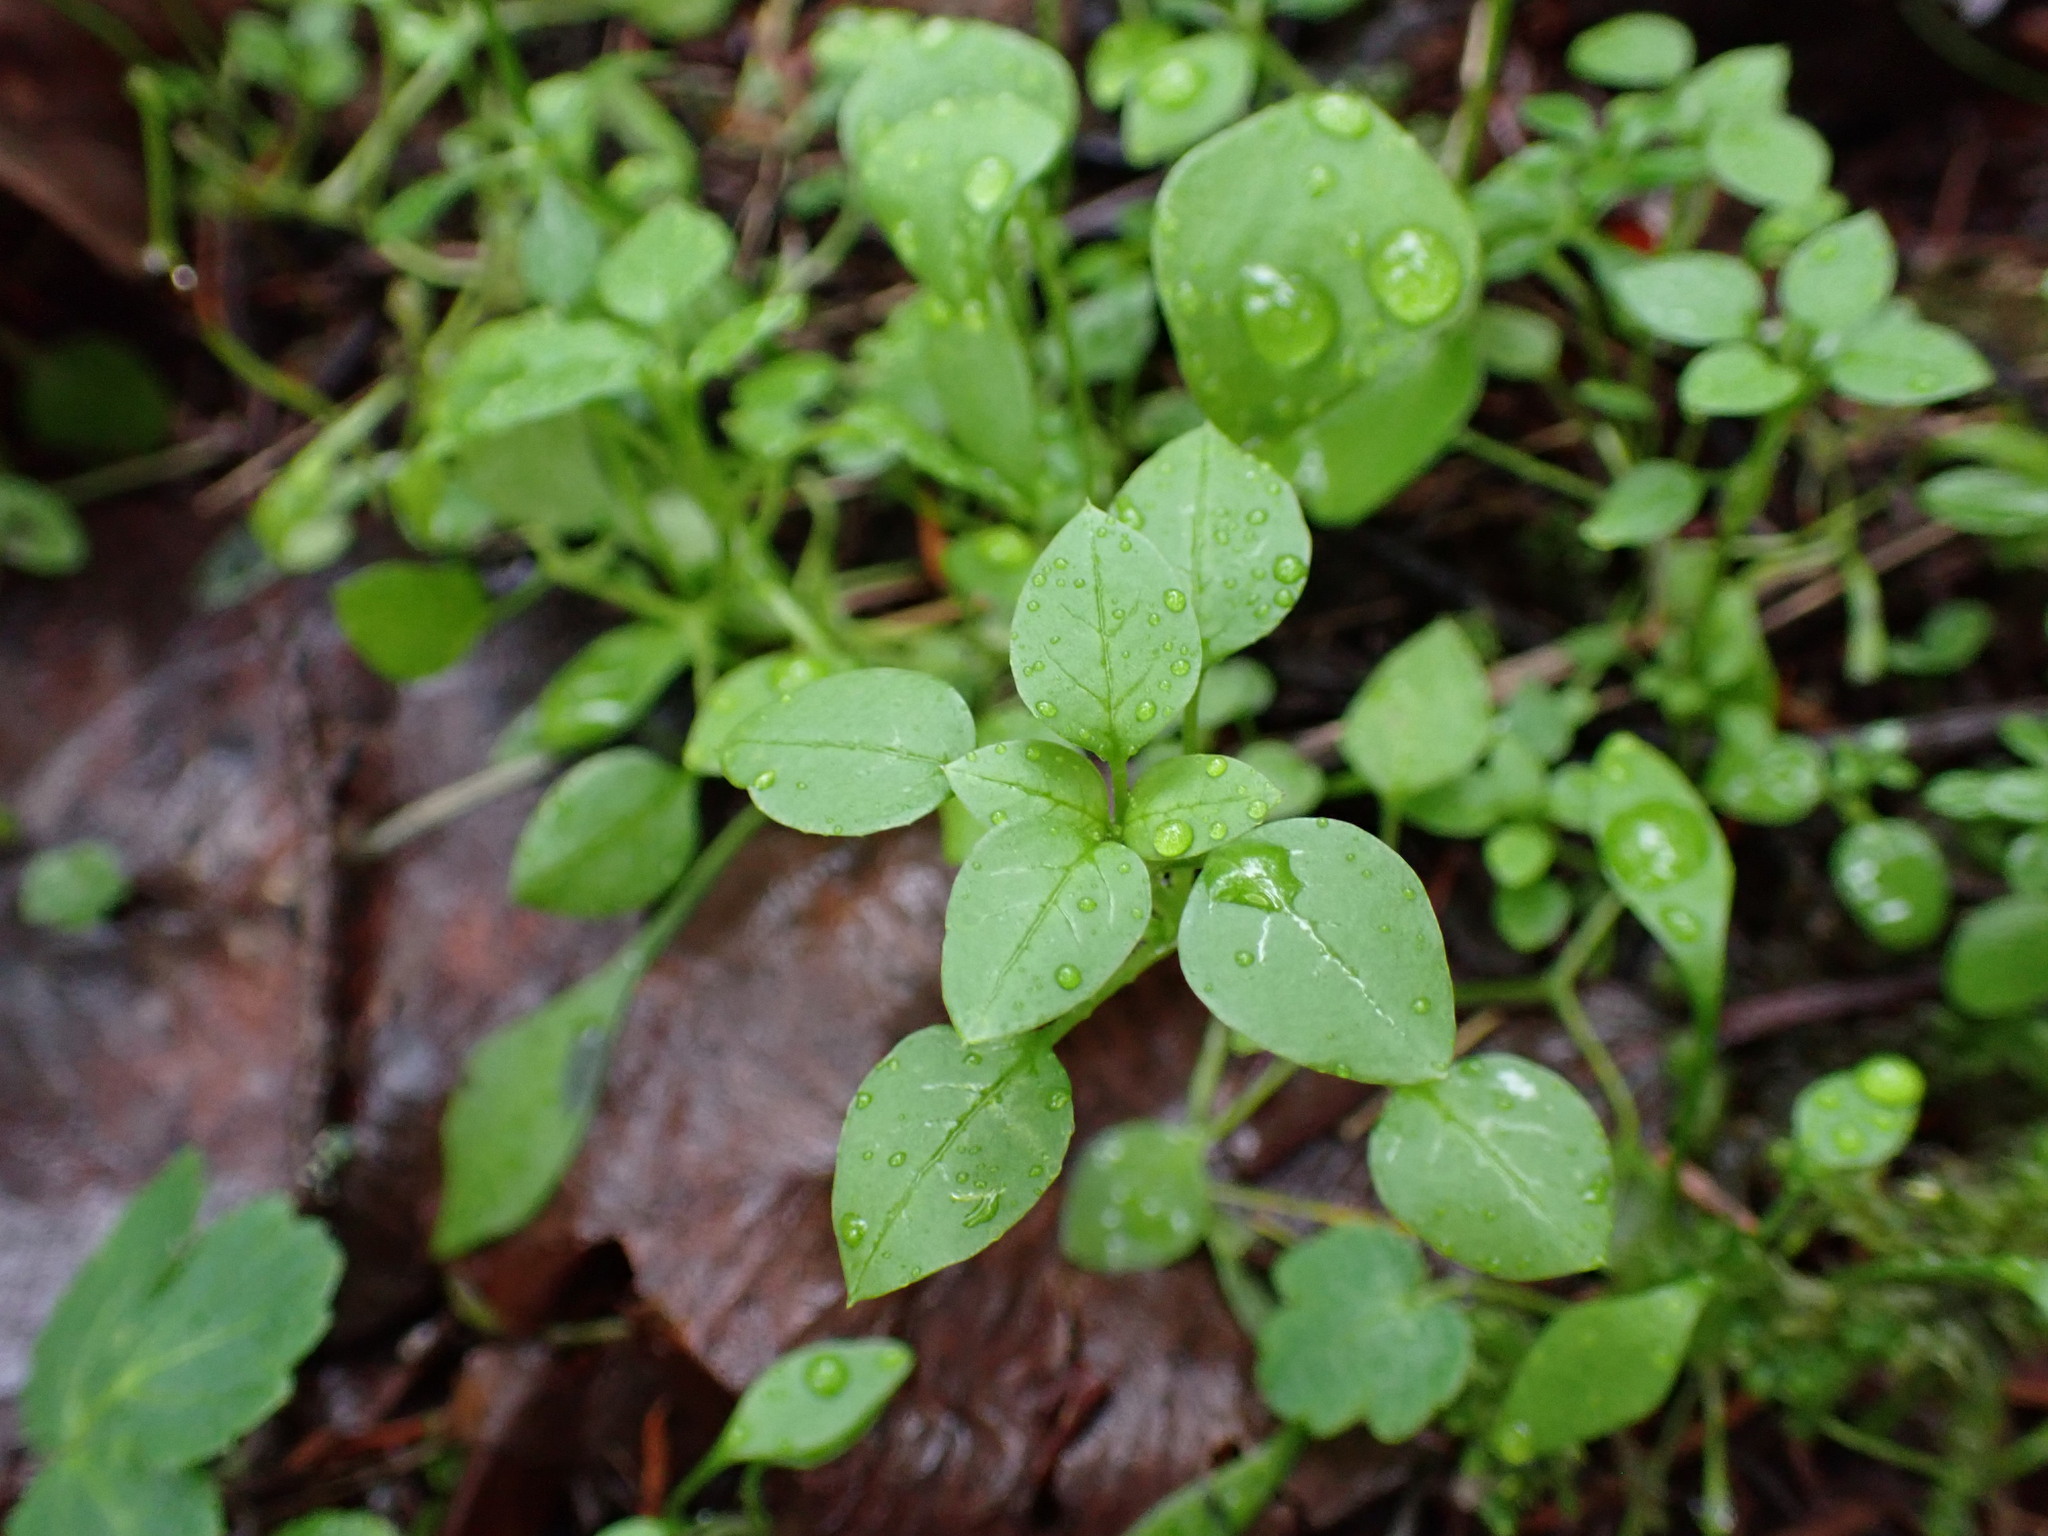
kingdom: Plantae
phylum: Tracheophyta
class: Magnoliopsida
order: Caryophyllales
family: Caryophyllaceae
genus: Stellaria
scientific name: Stellaria media
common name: Common chickweed
